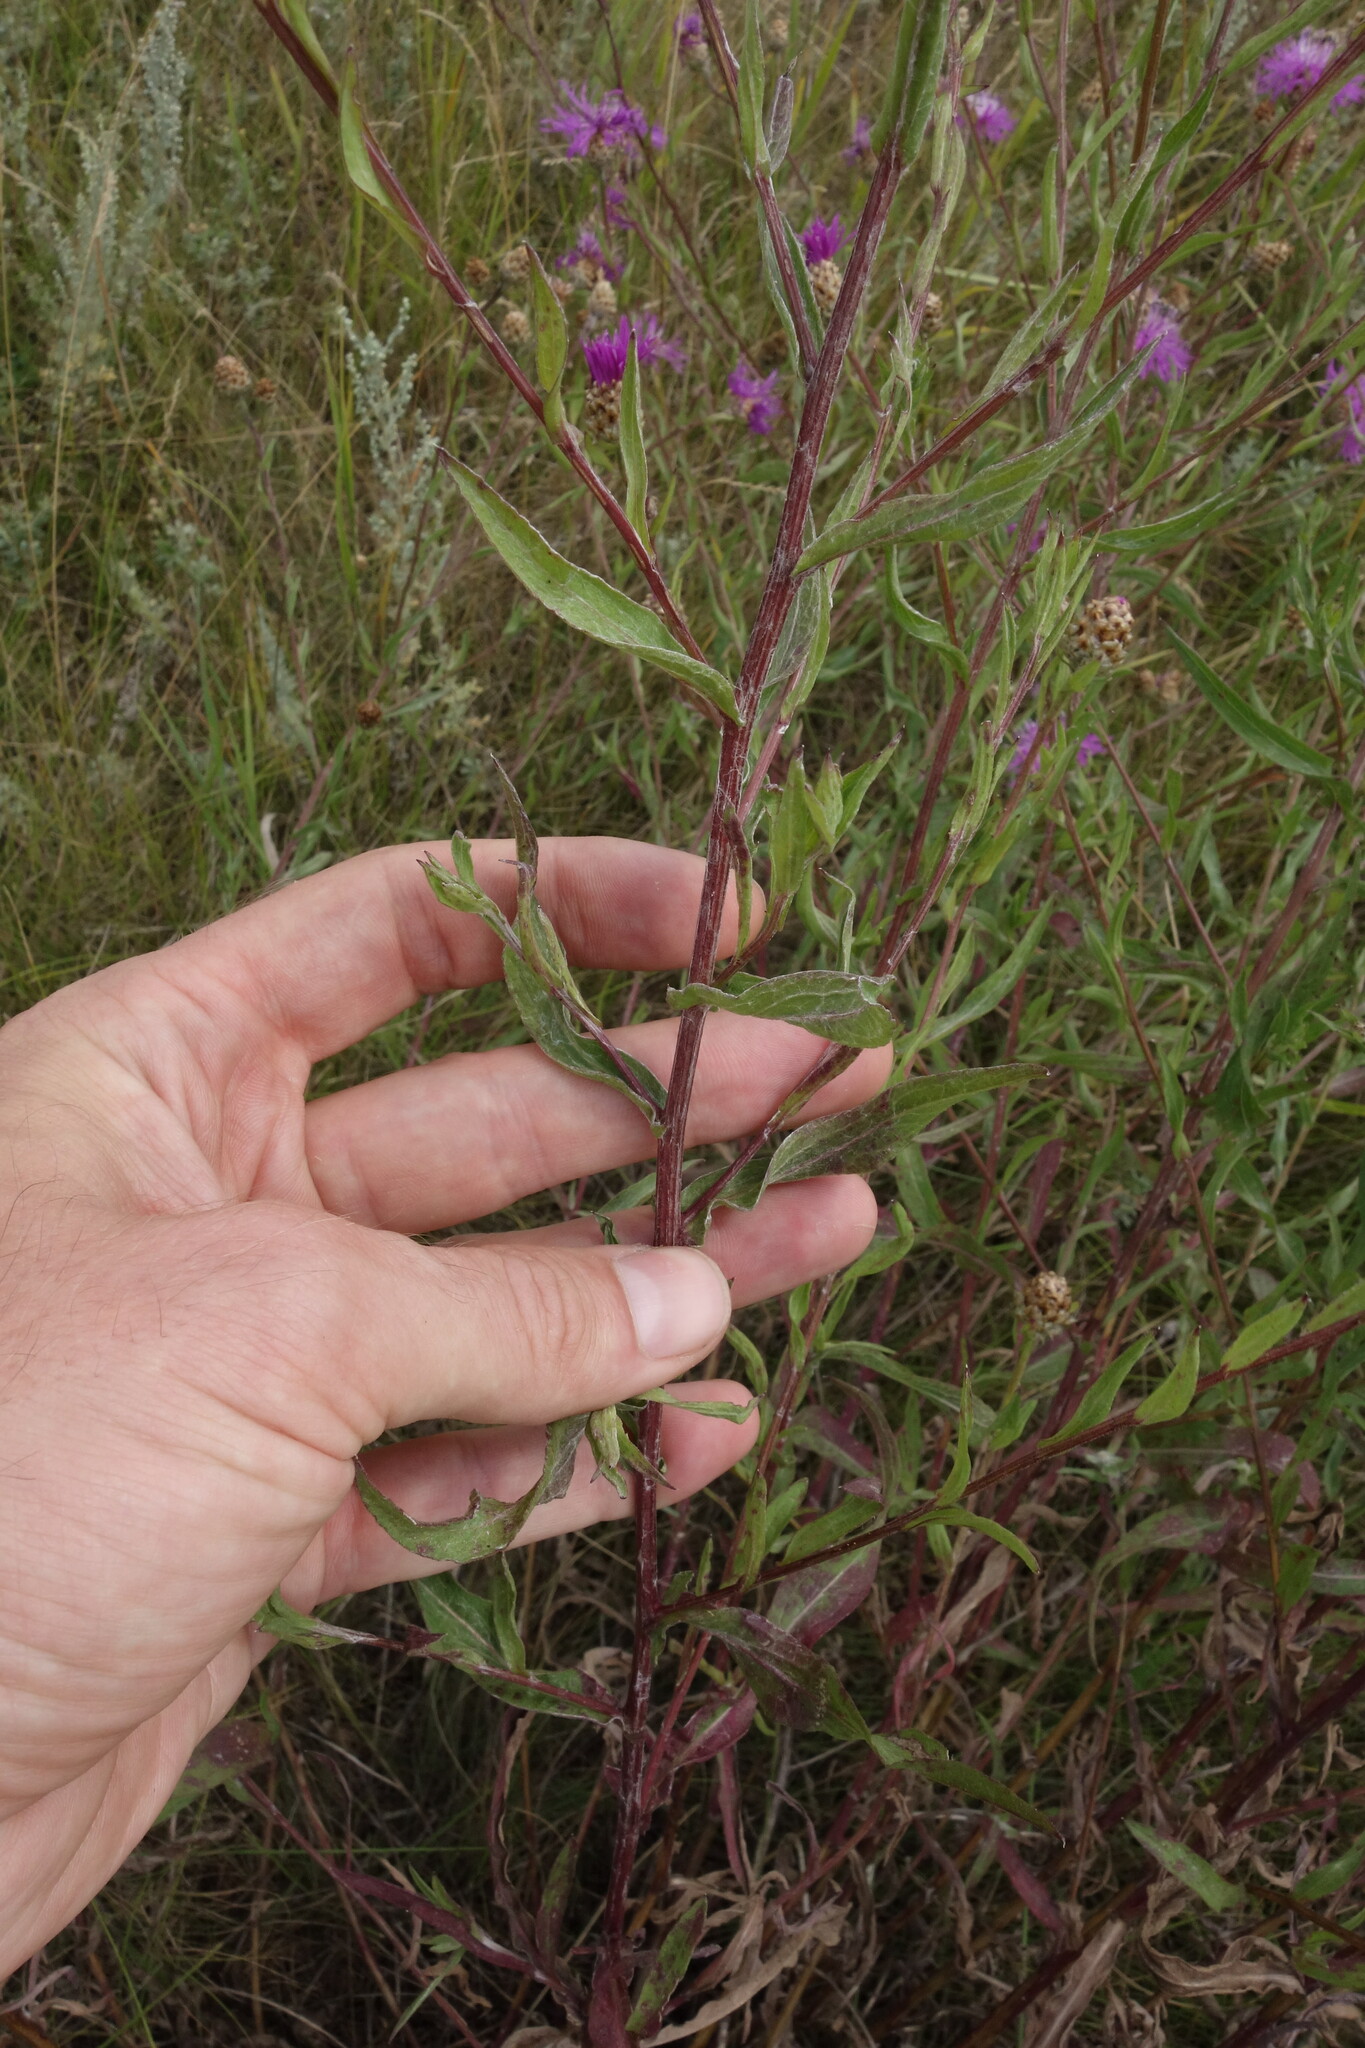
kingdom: Plantae
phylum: Tracheophyta
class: Magnoliopsida
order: Asterales
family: Asteraceae
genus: Centaurea
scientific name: Centaurea jacea
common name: Brown knapweed
